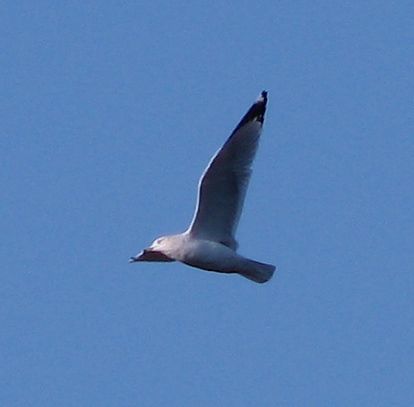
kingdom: Animalia
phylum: Chordata
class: Aves
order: Charadriiformes
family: Laridae
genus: Larus
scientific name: Larus delawarensis
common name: Ring-billed gull
